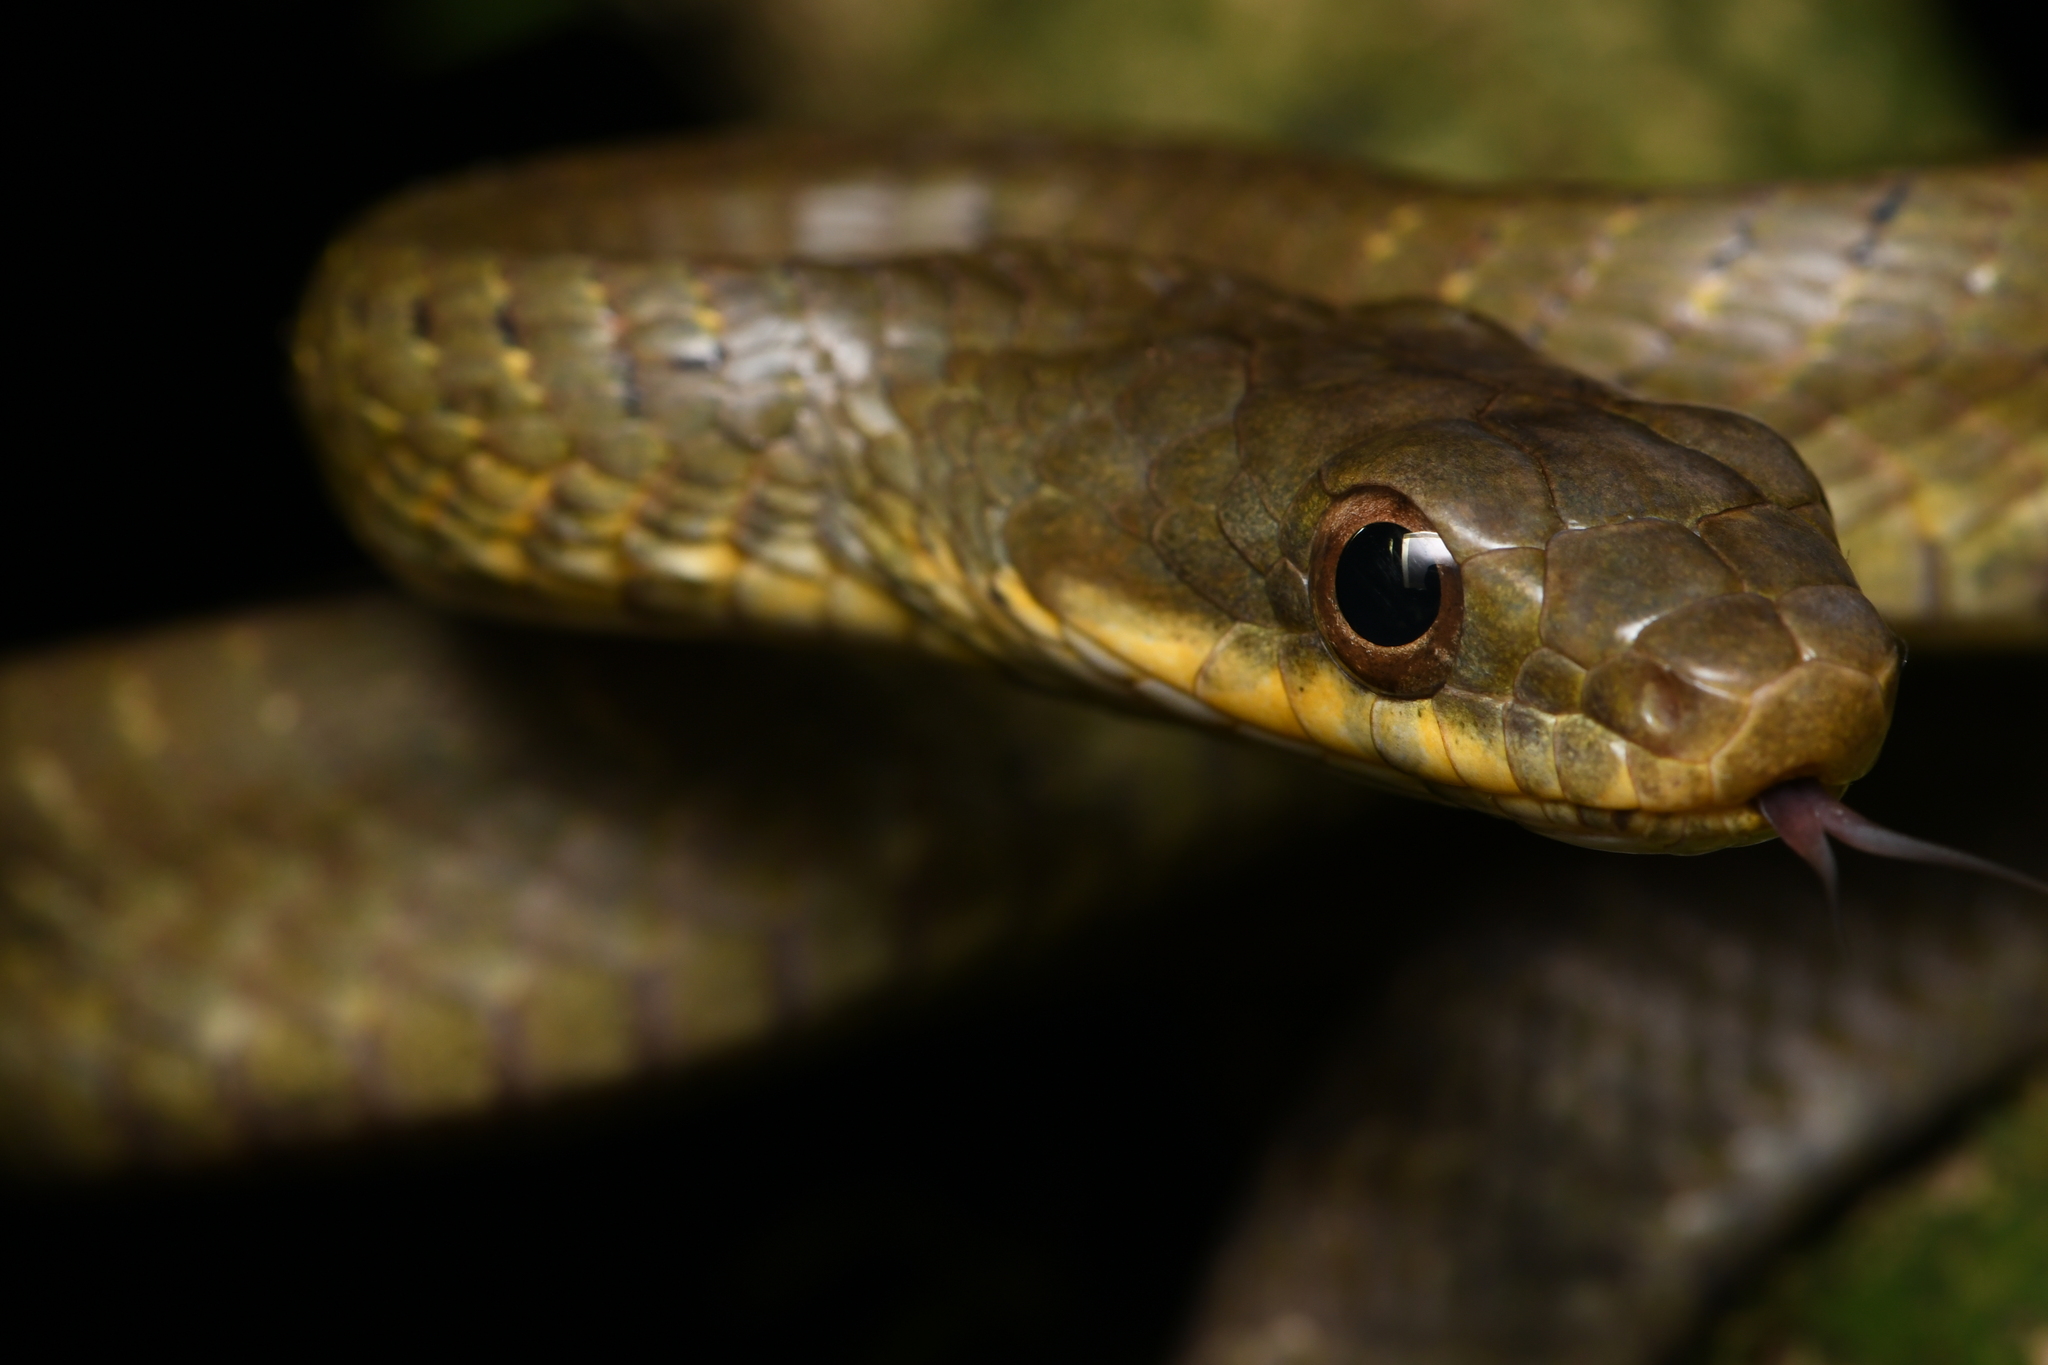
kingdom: Animalia
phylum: Chordata
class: Squamata
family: Colubridae
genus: Chironius
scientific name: Chironius quadricarinatus
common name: Central sipo
